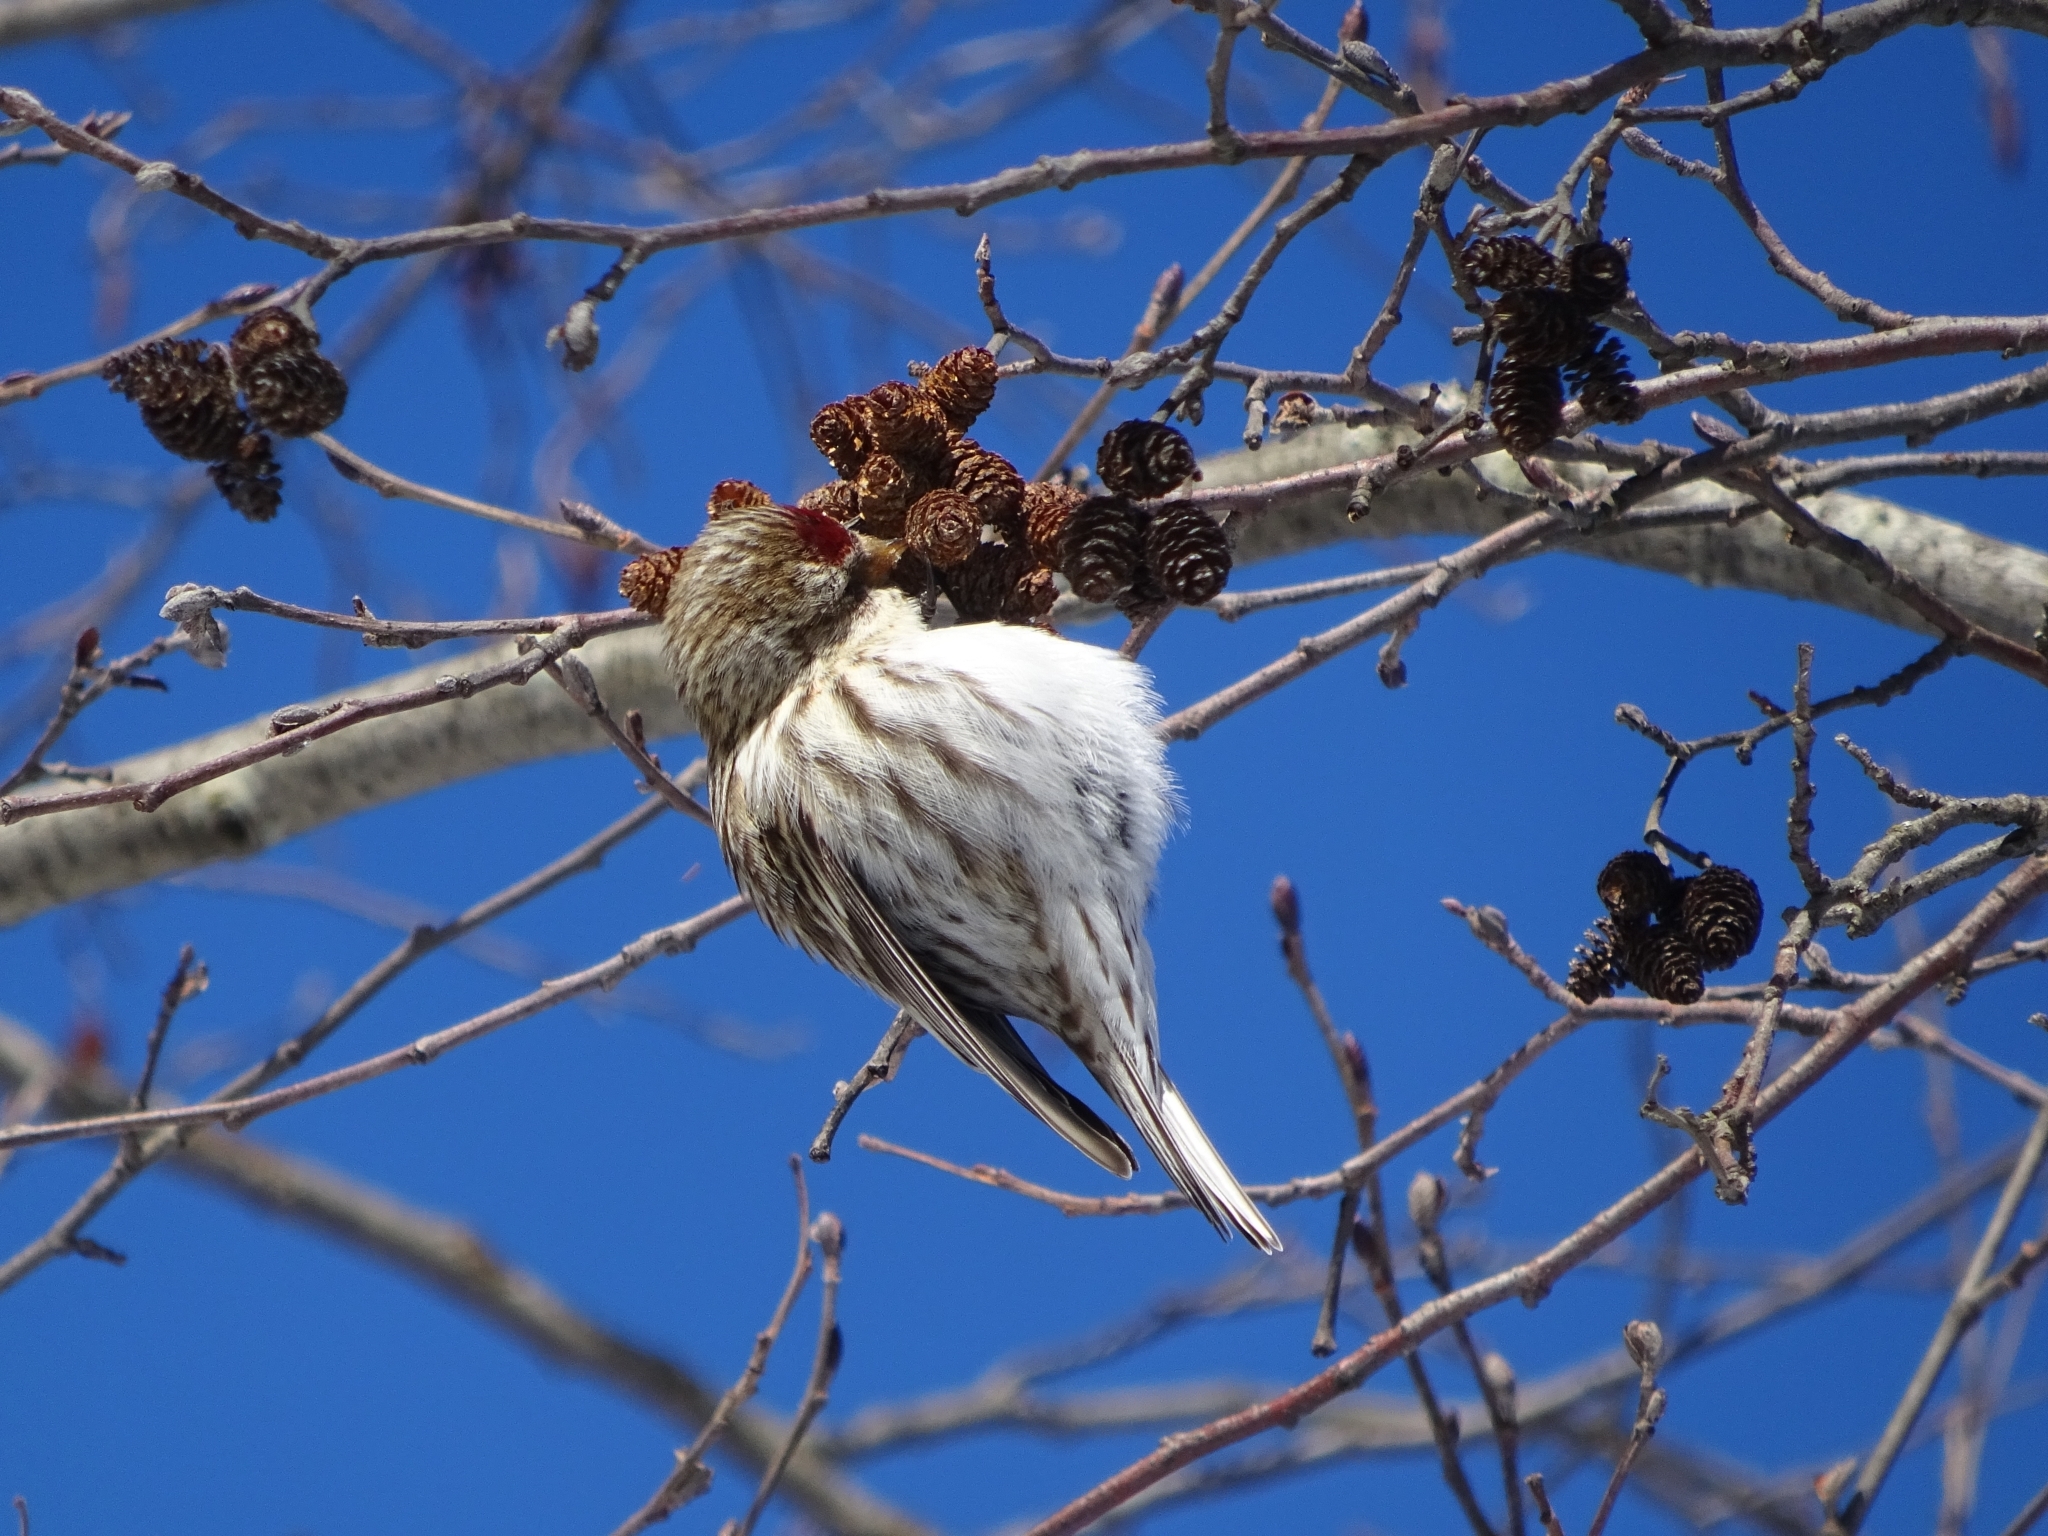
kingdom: Animalia
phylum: Chordata
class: Aves
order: Passeriformes
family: Fringillidae
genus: Acanthis
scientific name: Acanthis flammea
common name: Common redpoll
